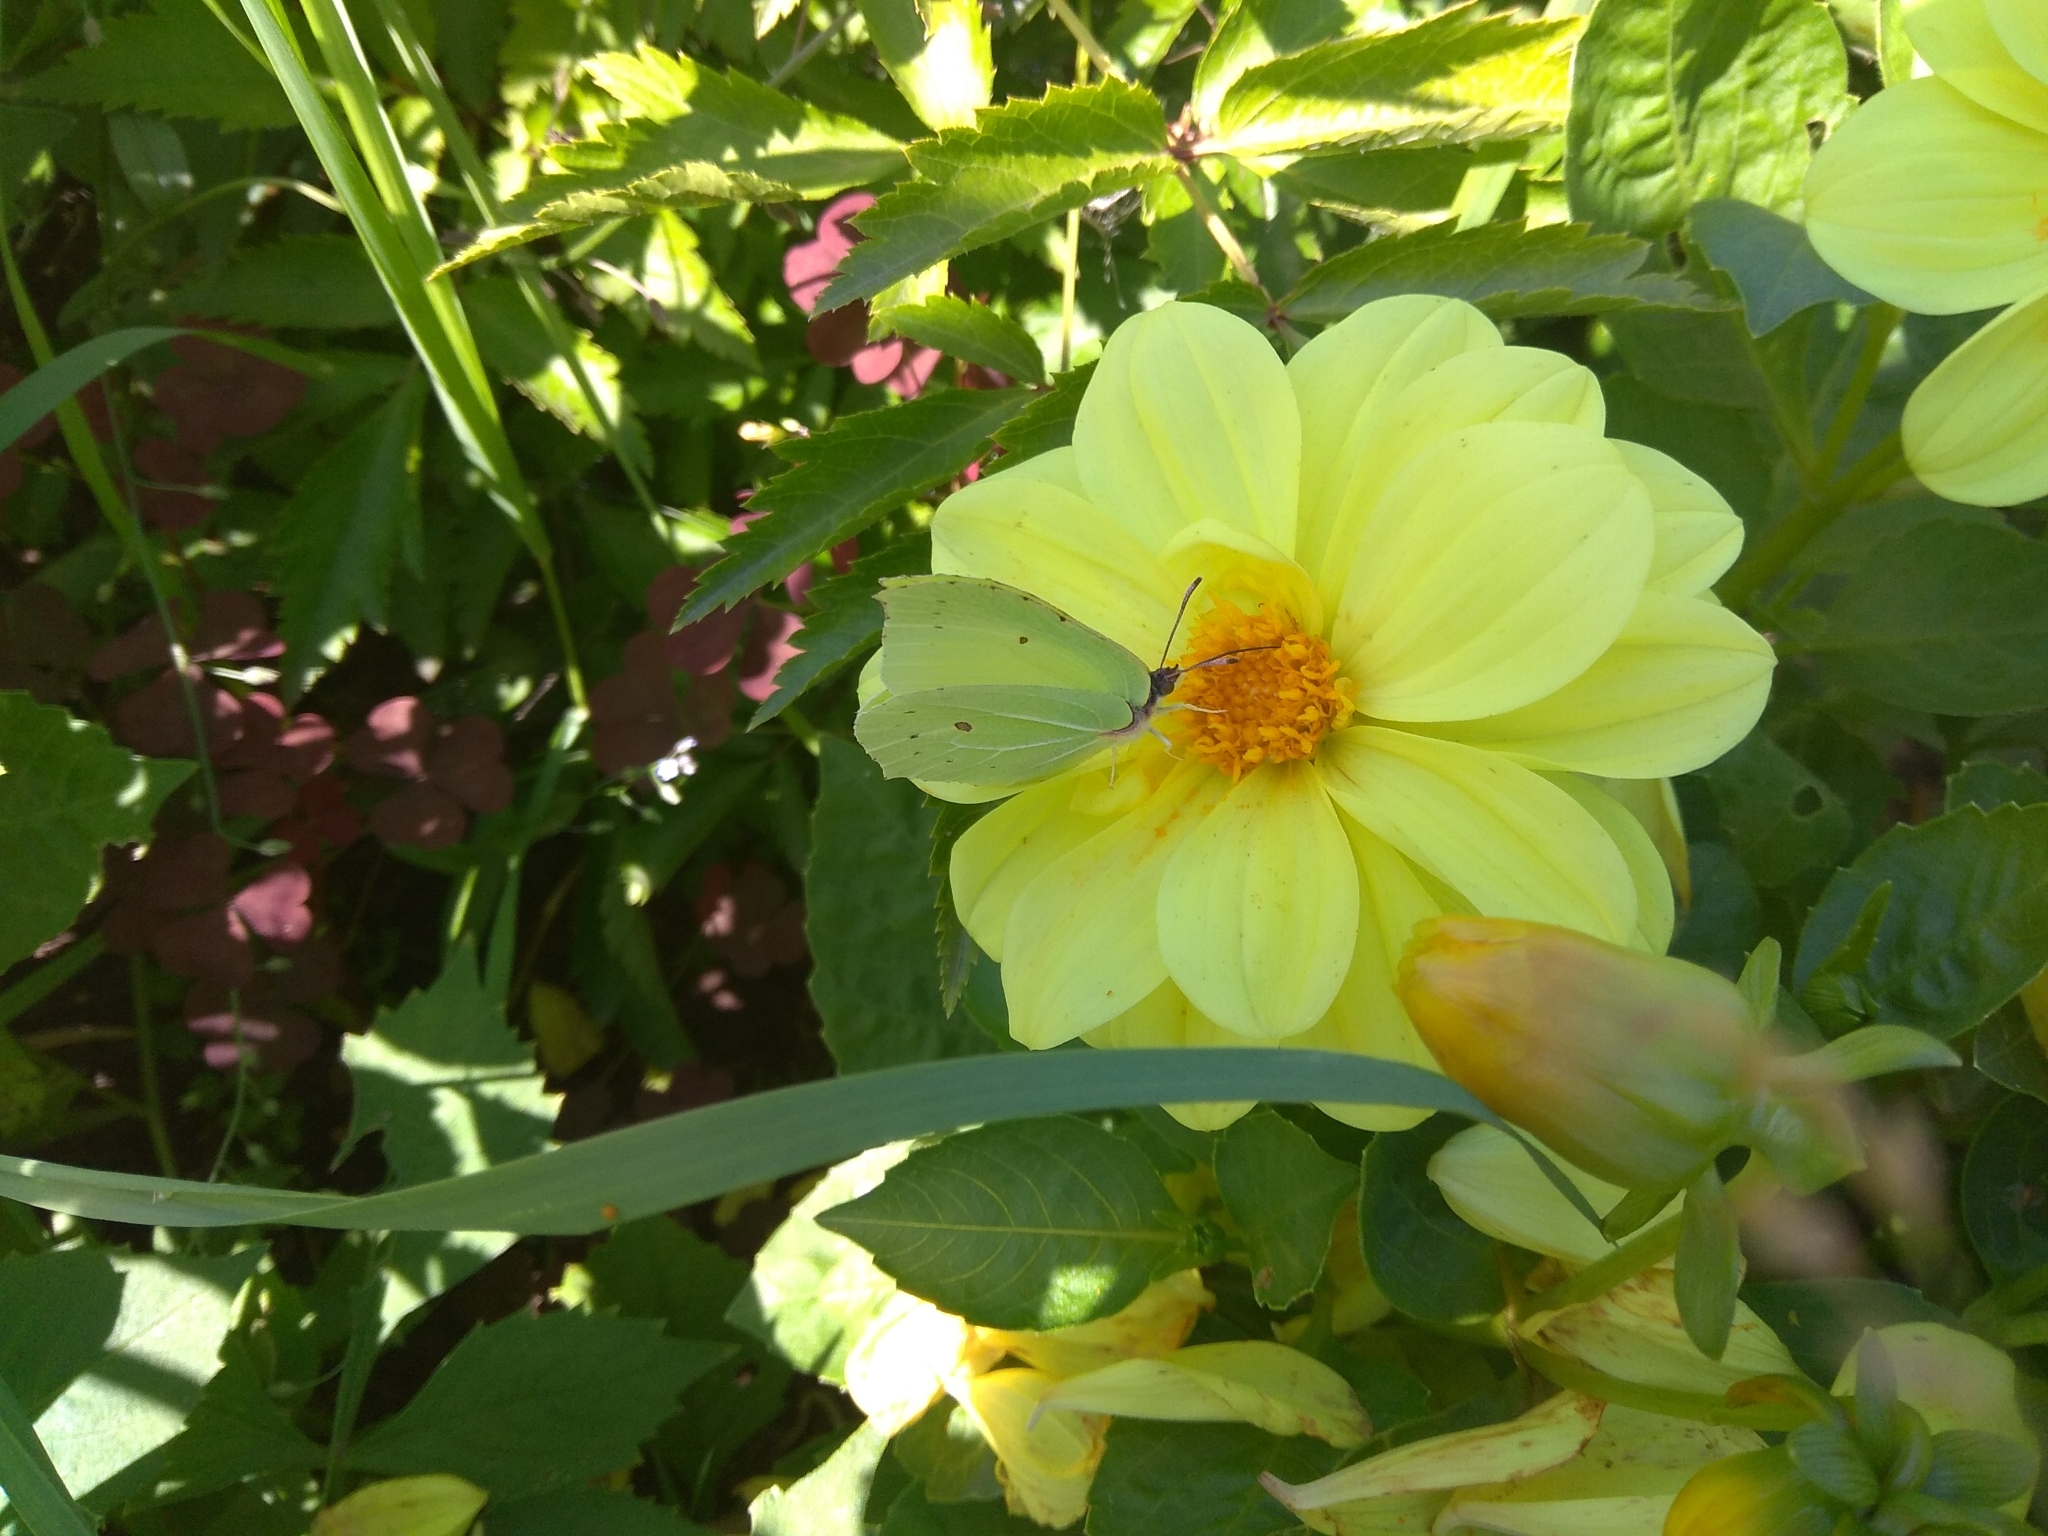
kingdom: Animalia
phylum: Arthropoda
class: Insecta
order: Lepidoptera
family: Pieridae
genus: Gonepteryx
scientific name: Gonepteryx rhamni
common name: Brimstone
